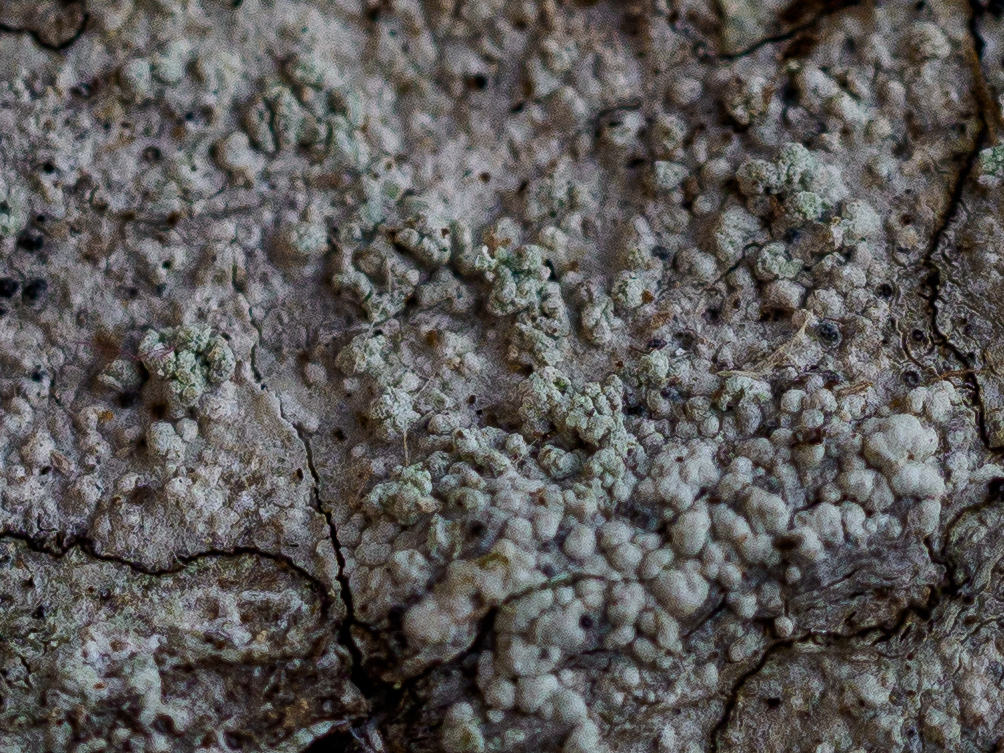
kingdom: Fungi
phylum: Ascomycota
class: Lecanoromycetes
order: Caliciales
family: Caliciaceae
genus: Buellia
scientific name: Buellia griseovirens
